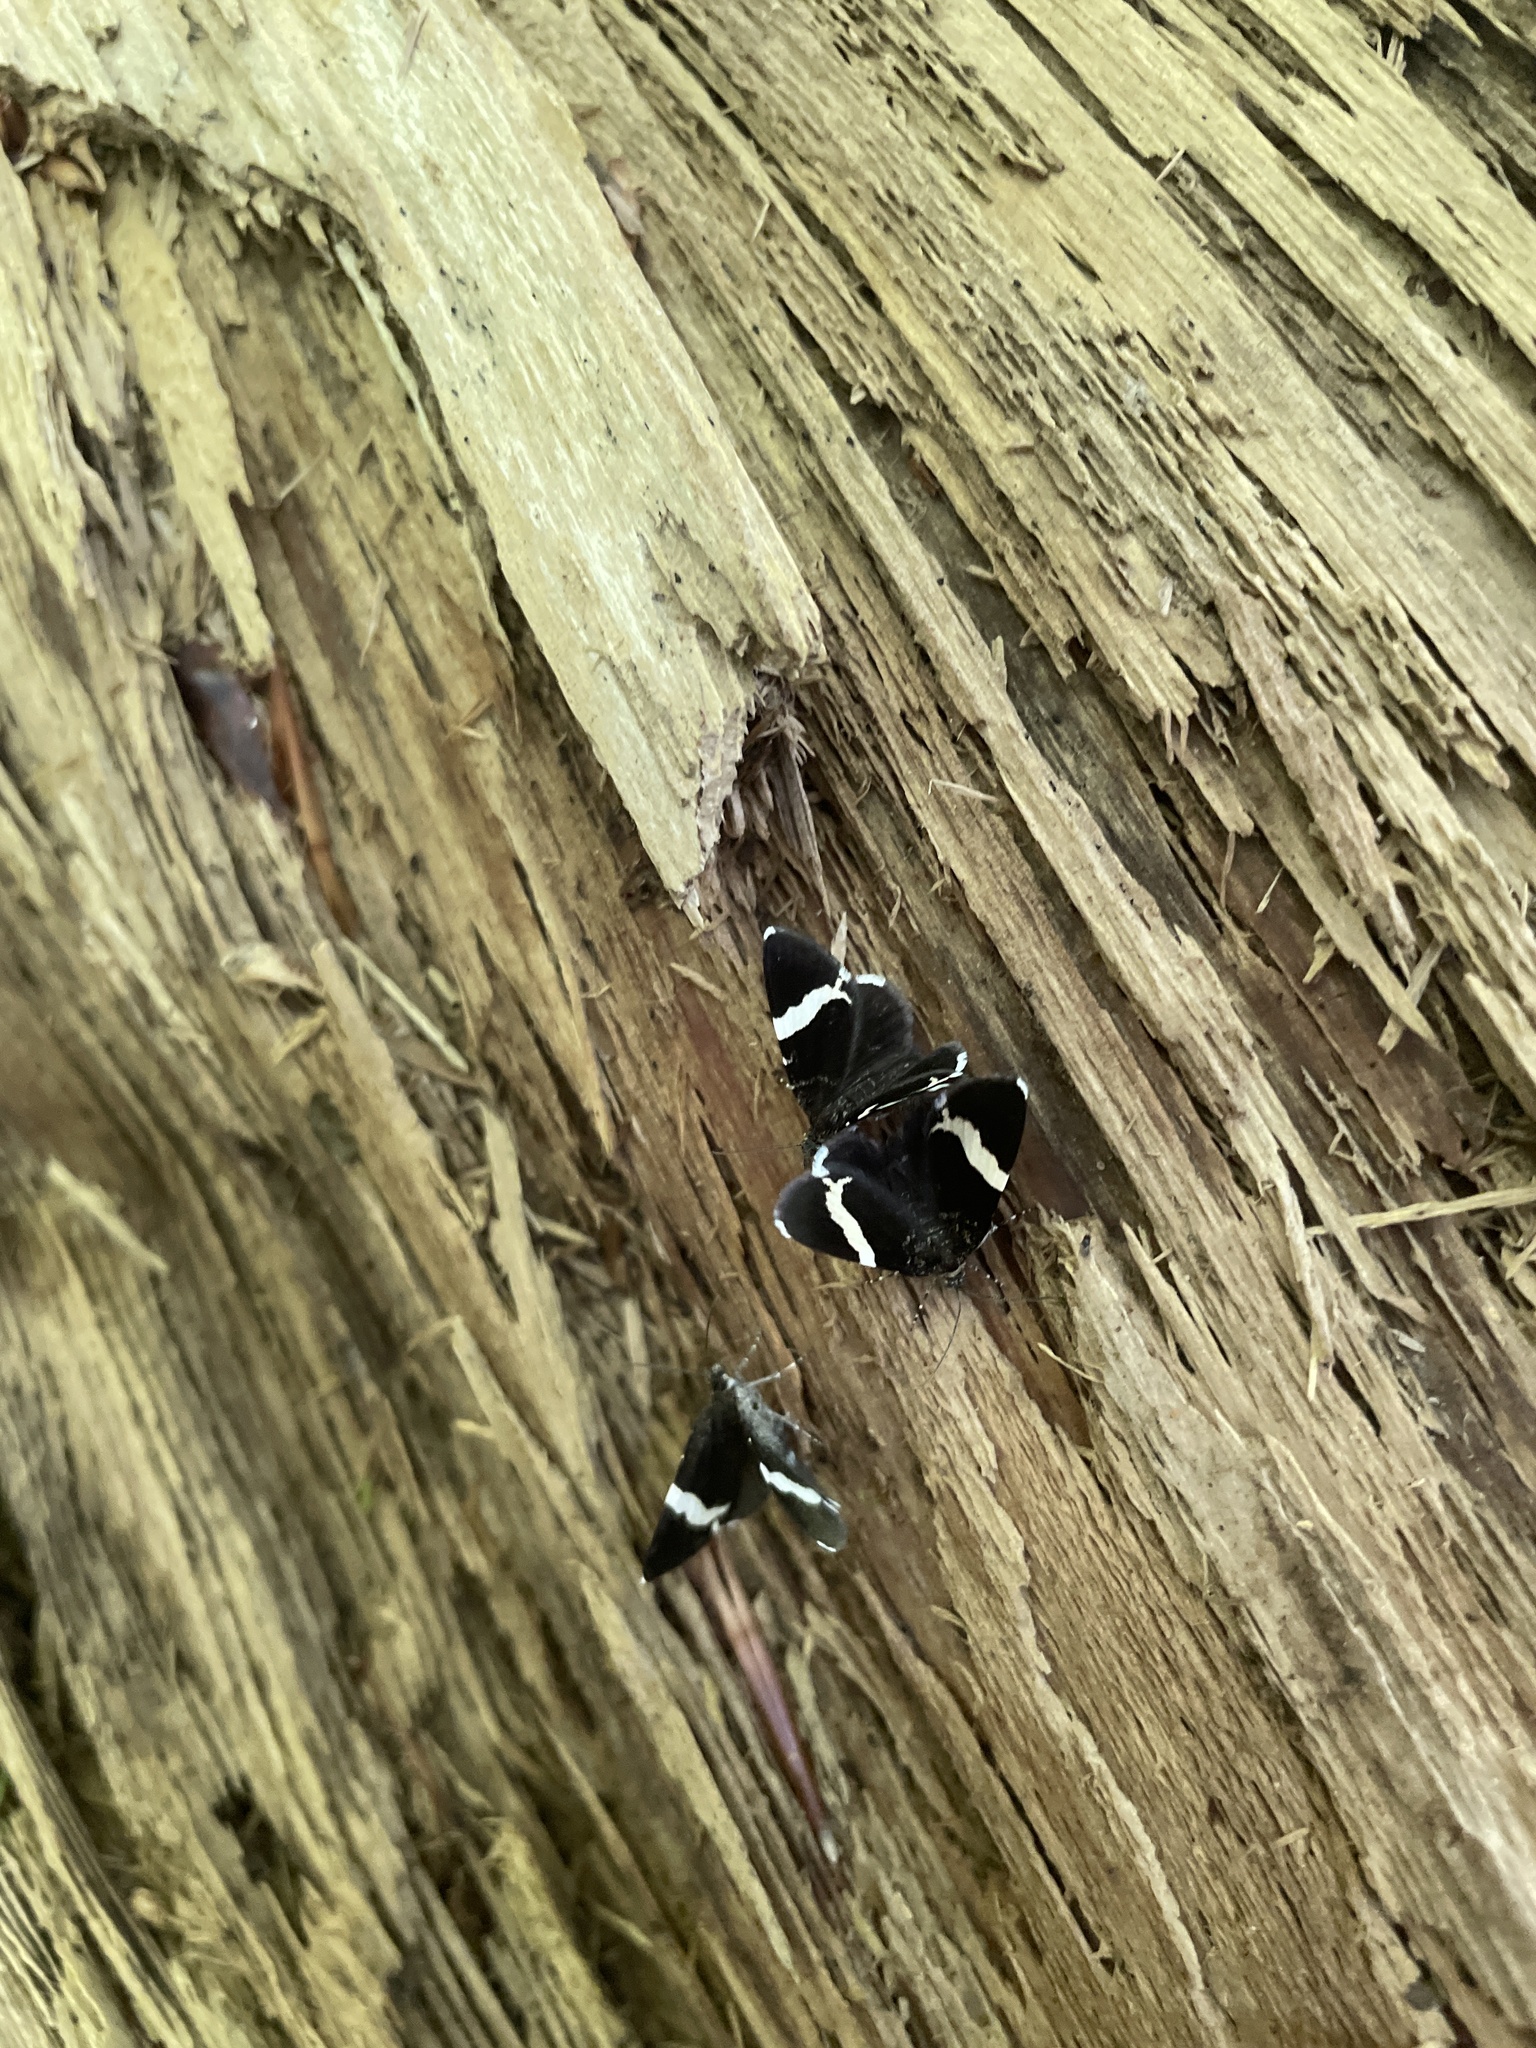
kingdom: Animalia
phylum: Arthropoda
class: Insecta
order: Lepidoptera
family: Geometridae
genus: Trichodezia
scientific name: Trichodezia albovittata
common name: White striped black
